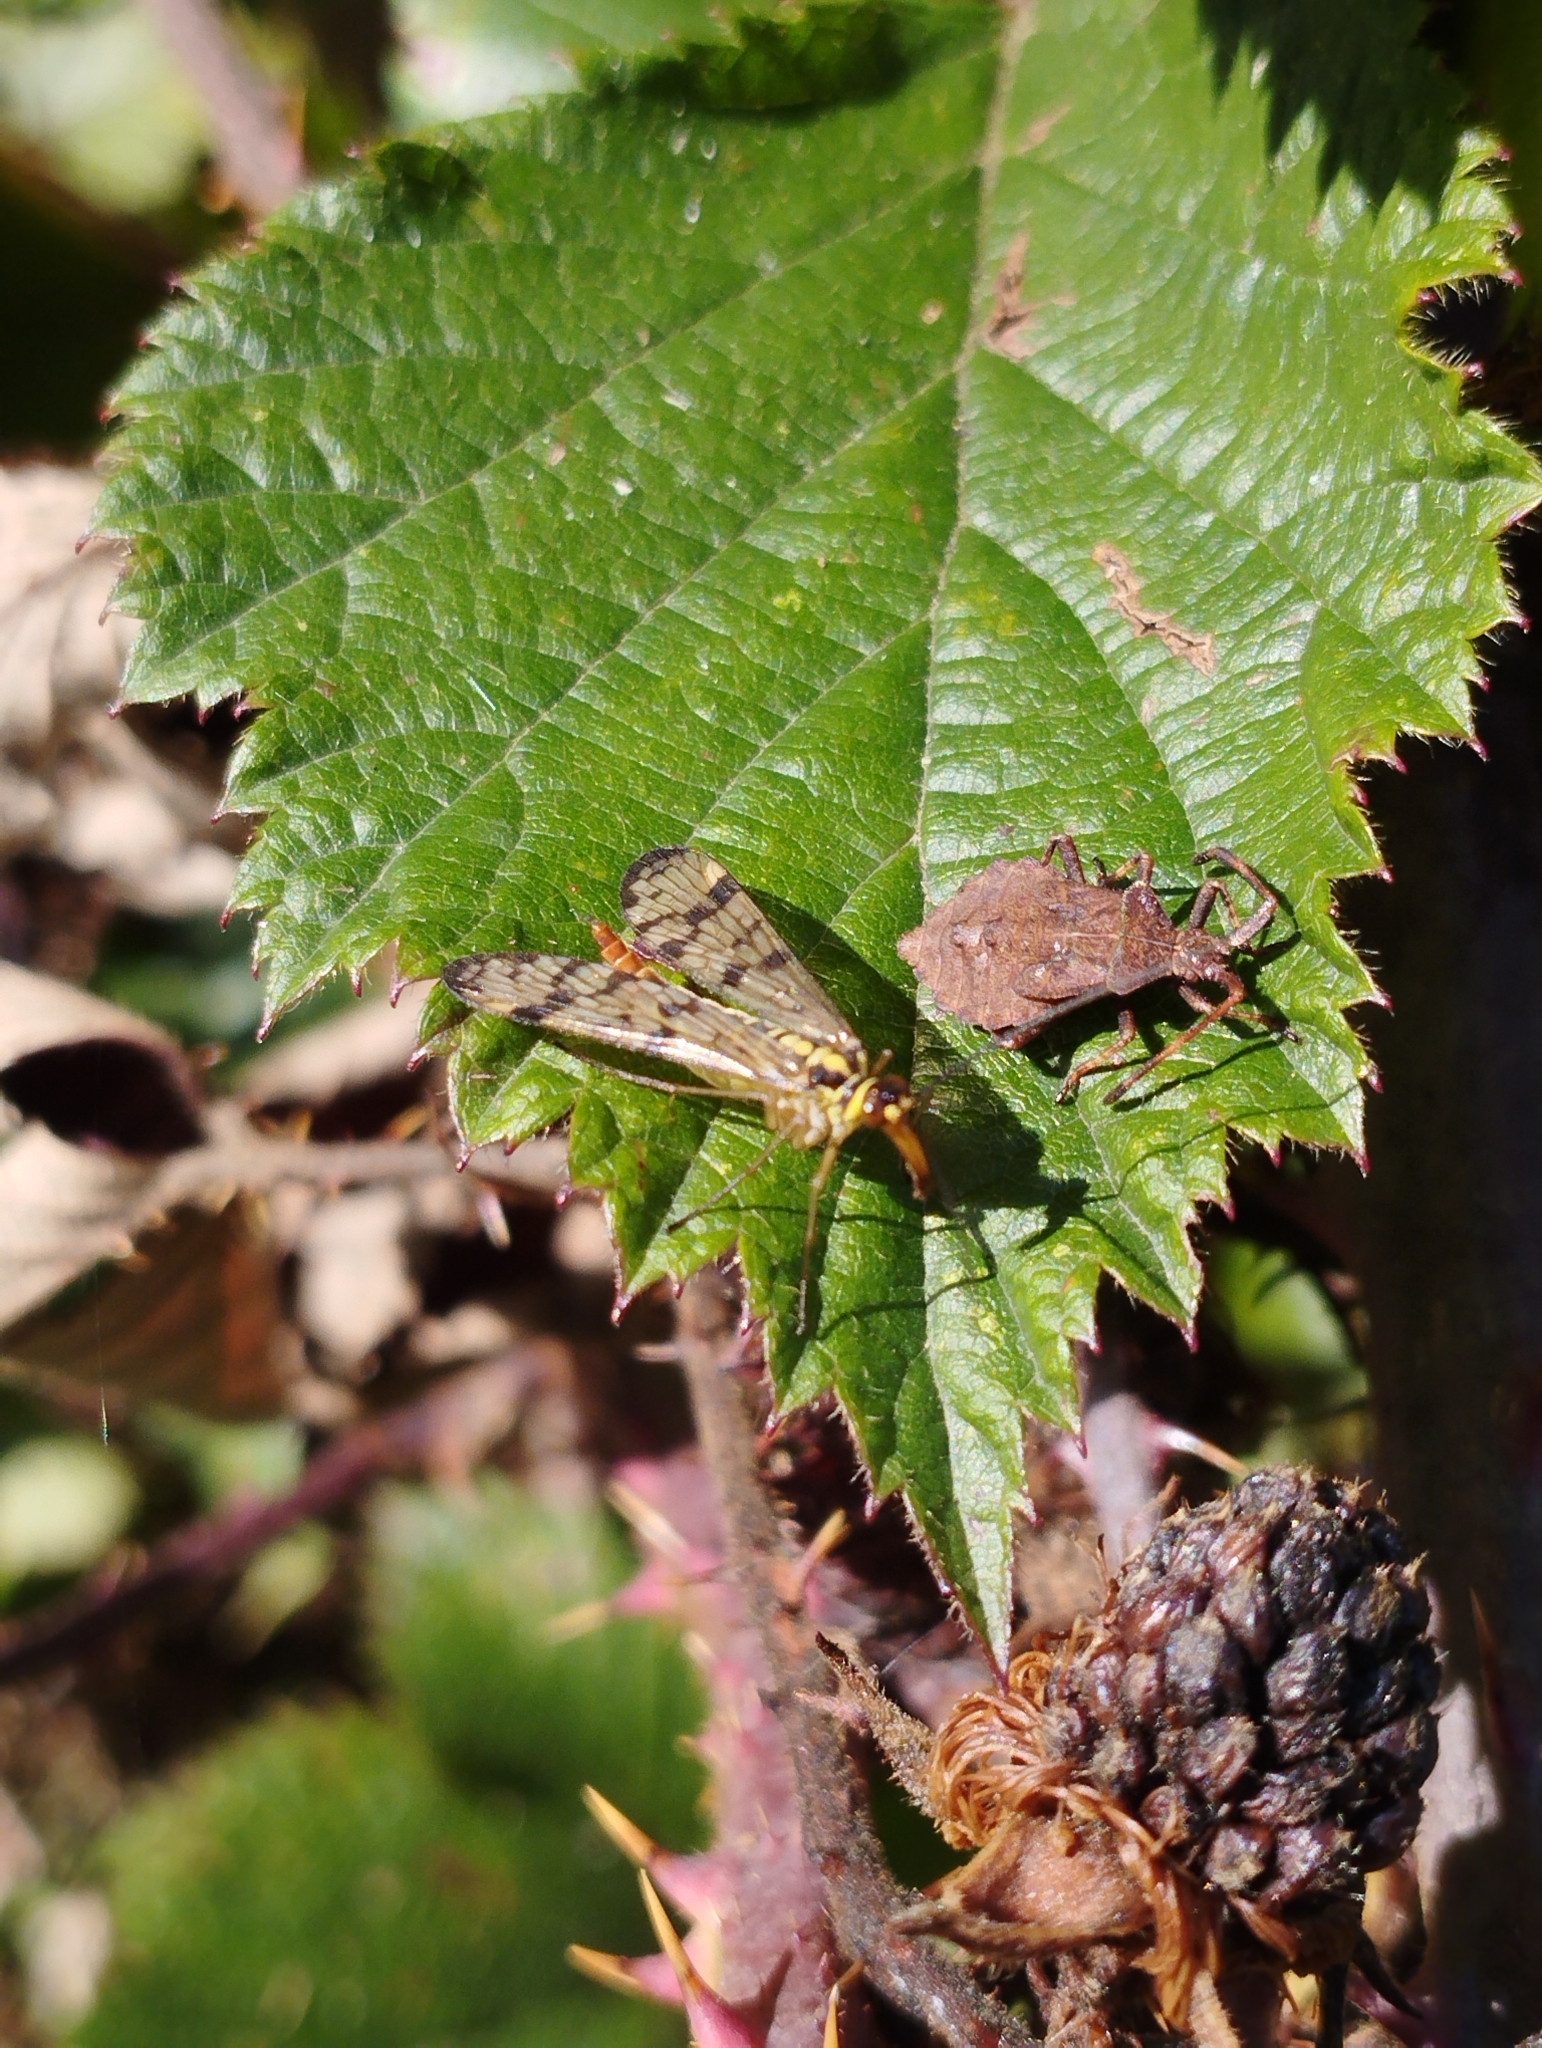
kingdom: Animalia
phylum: Arthropoda
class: Insecta
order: Mecoptera
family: Panorpidae
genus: Panorpa
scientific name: Panorpa
